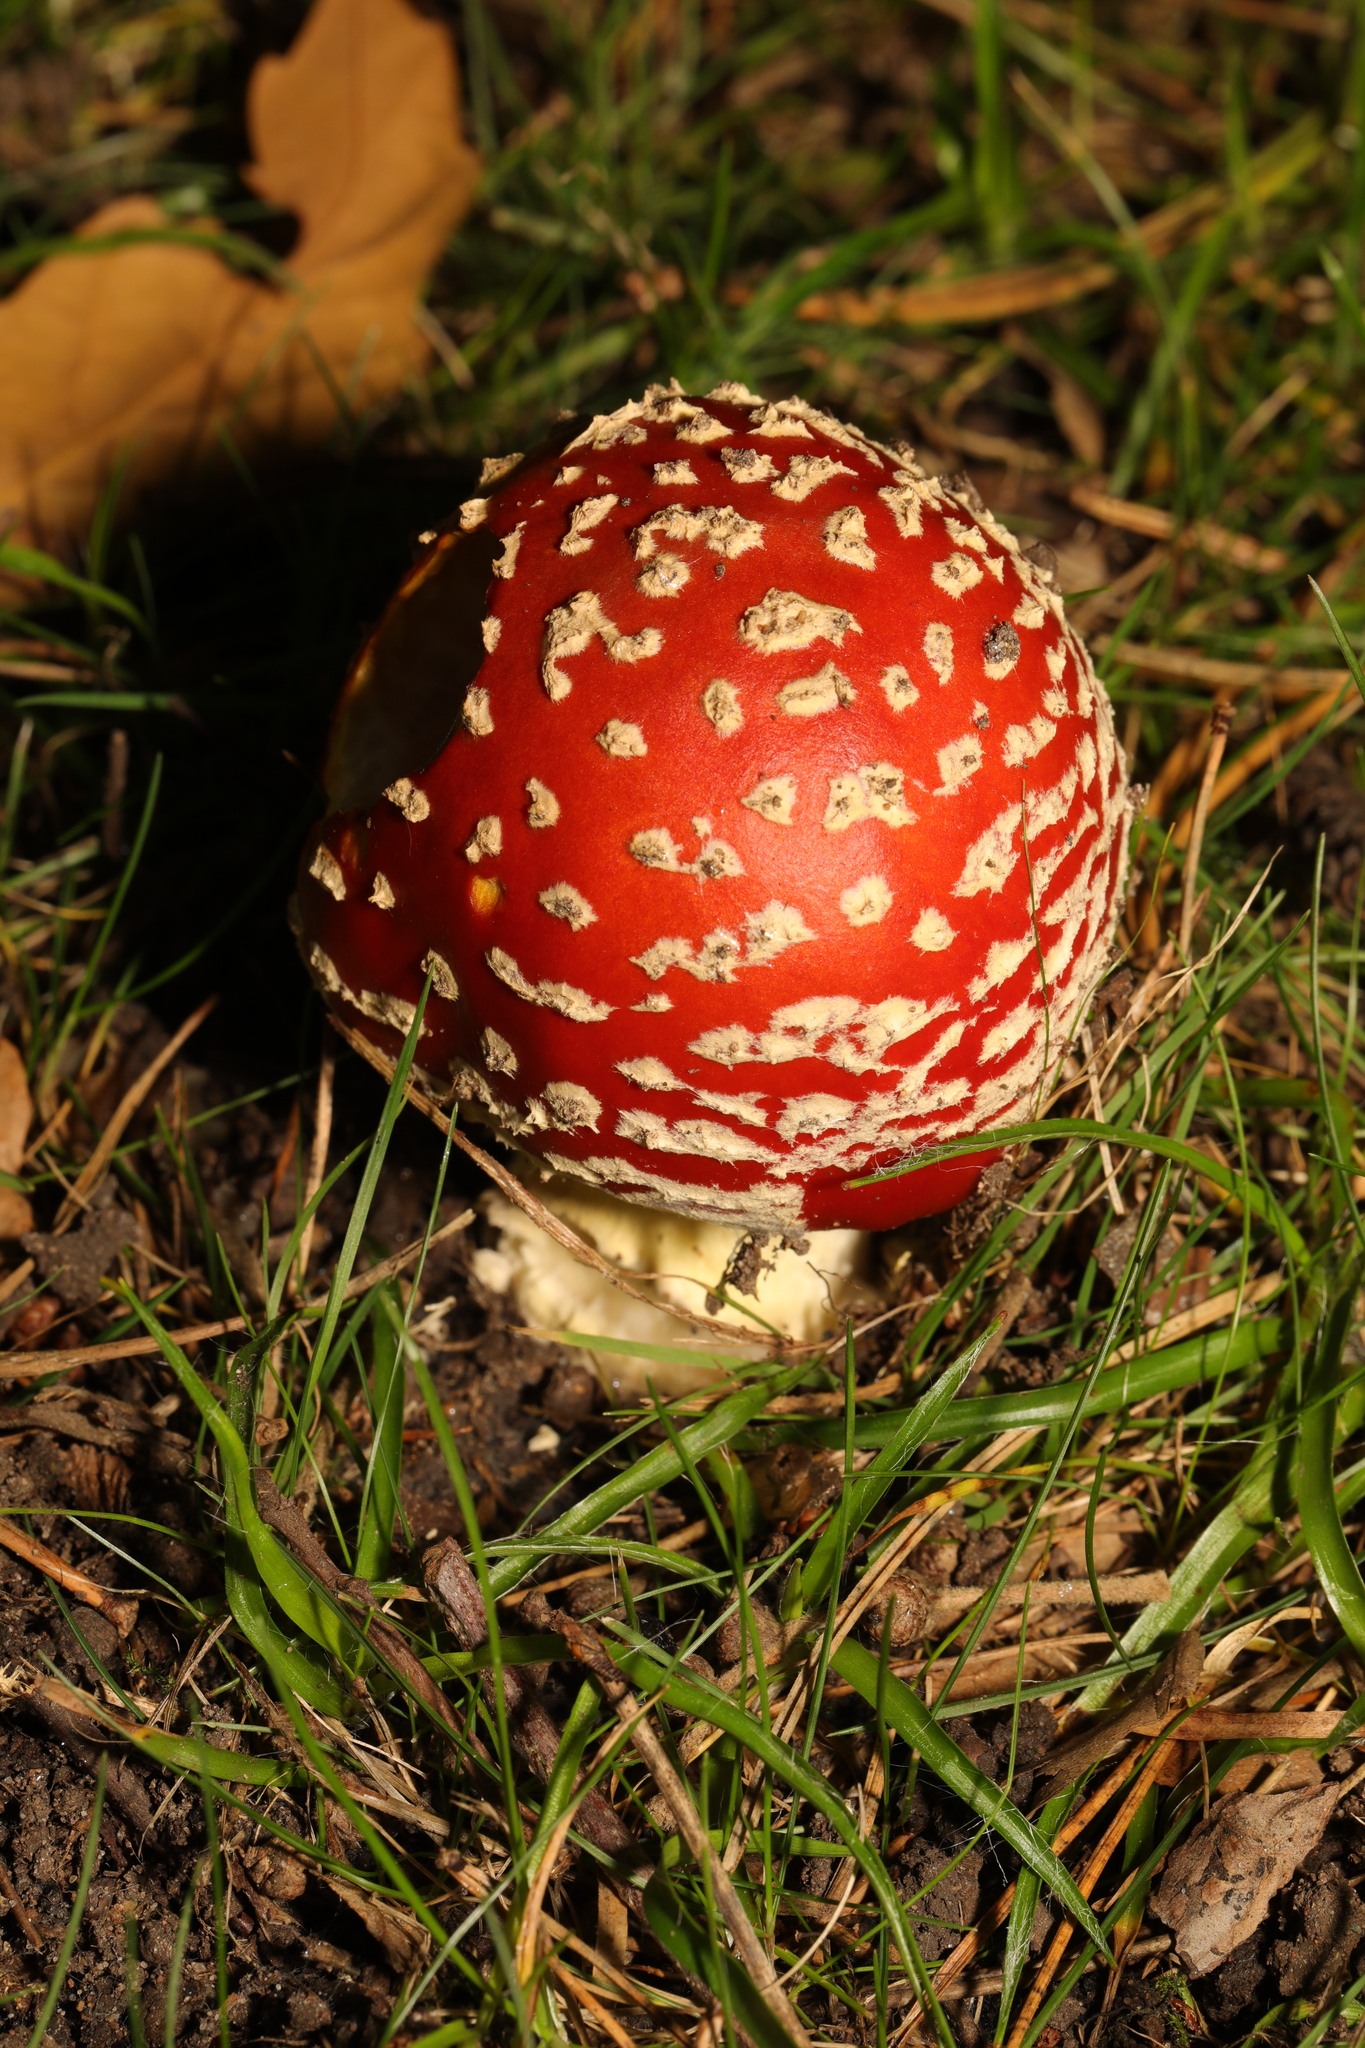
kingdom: Fungi
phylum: Basidiomycota
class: Agaricomycetes
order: Agaricales
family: Amanitaceae
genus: Amanita
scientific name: Amanita muscaria
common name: Fly agaric
